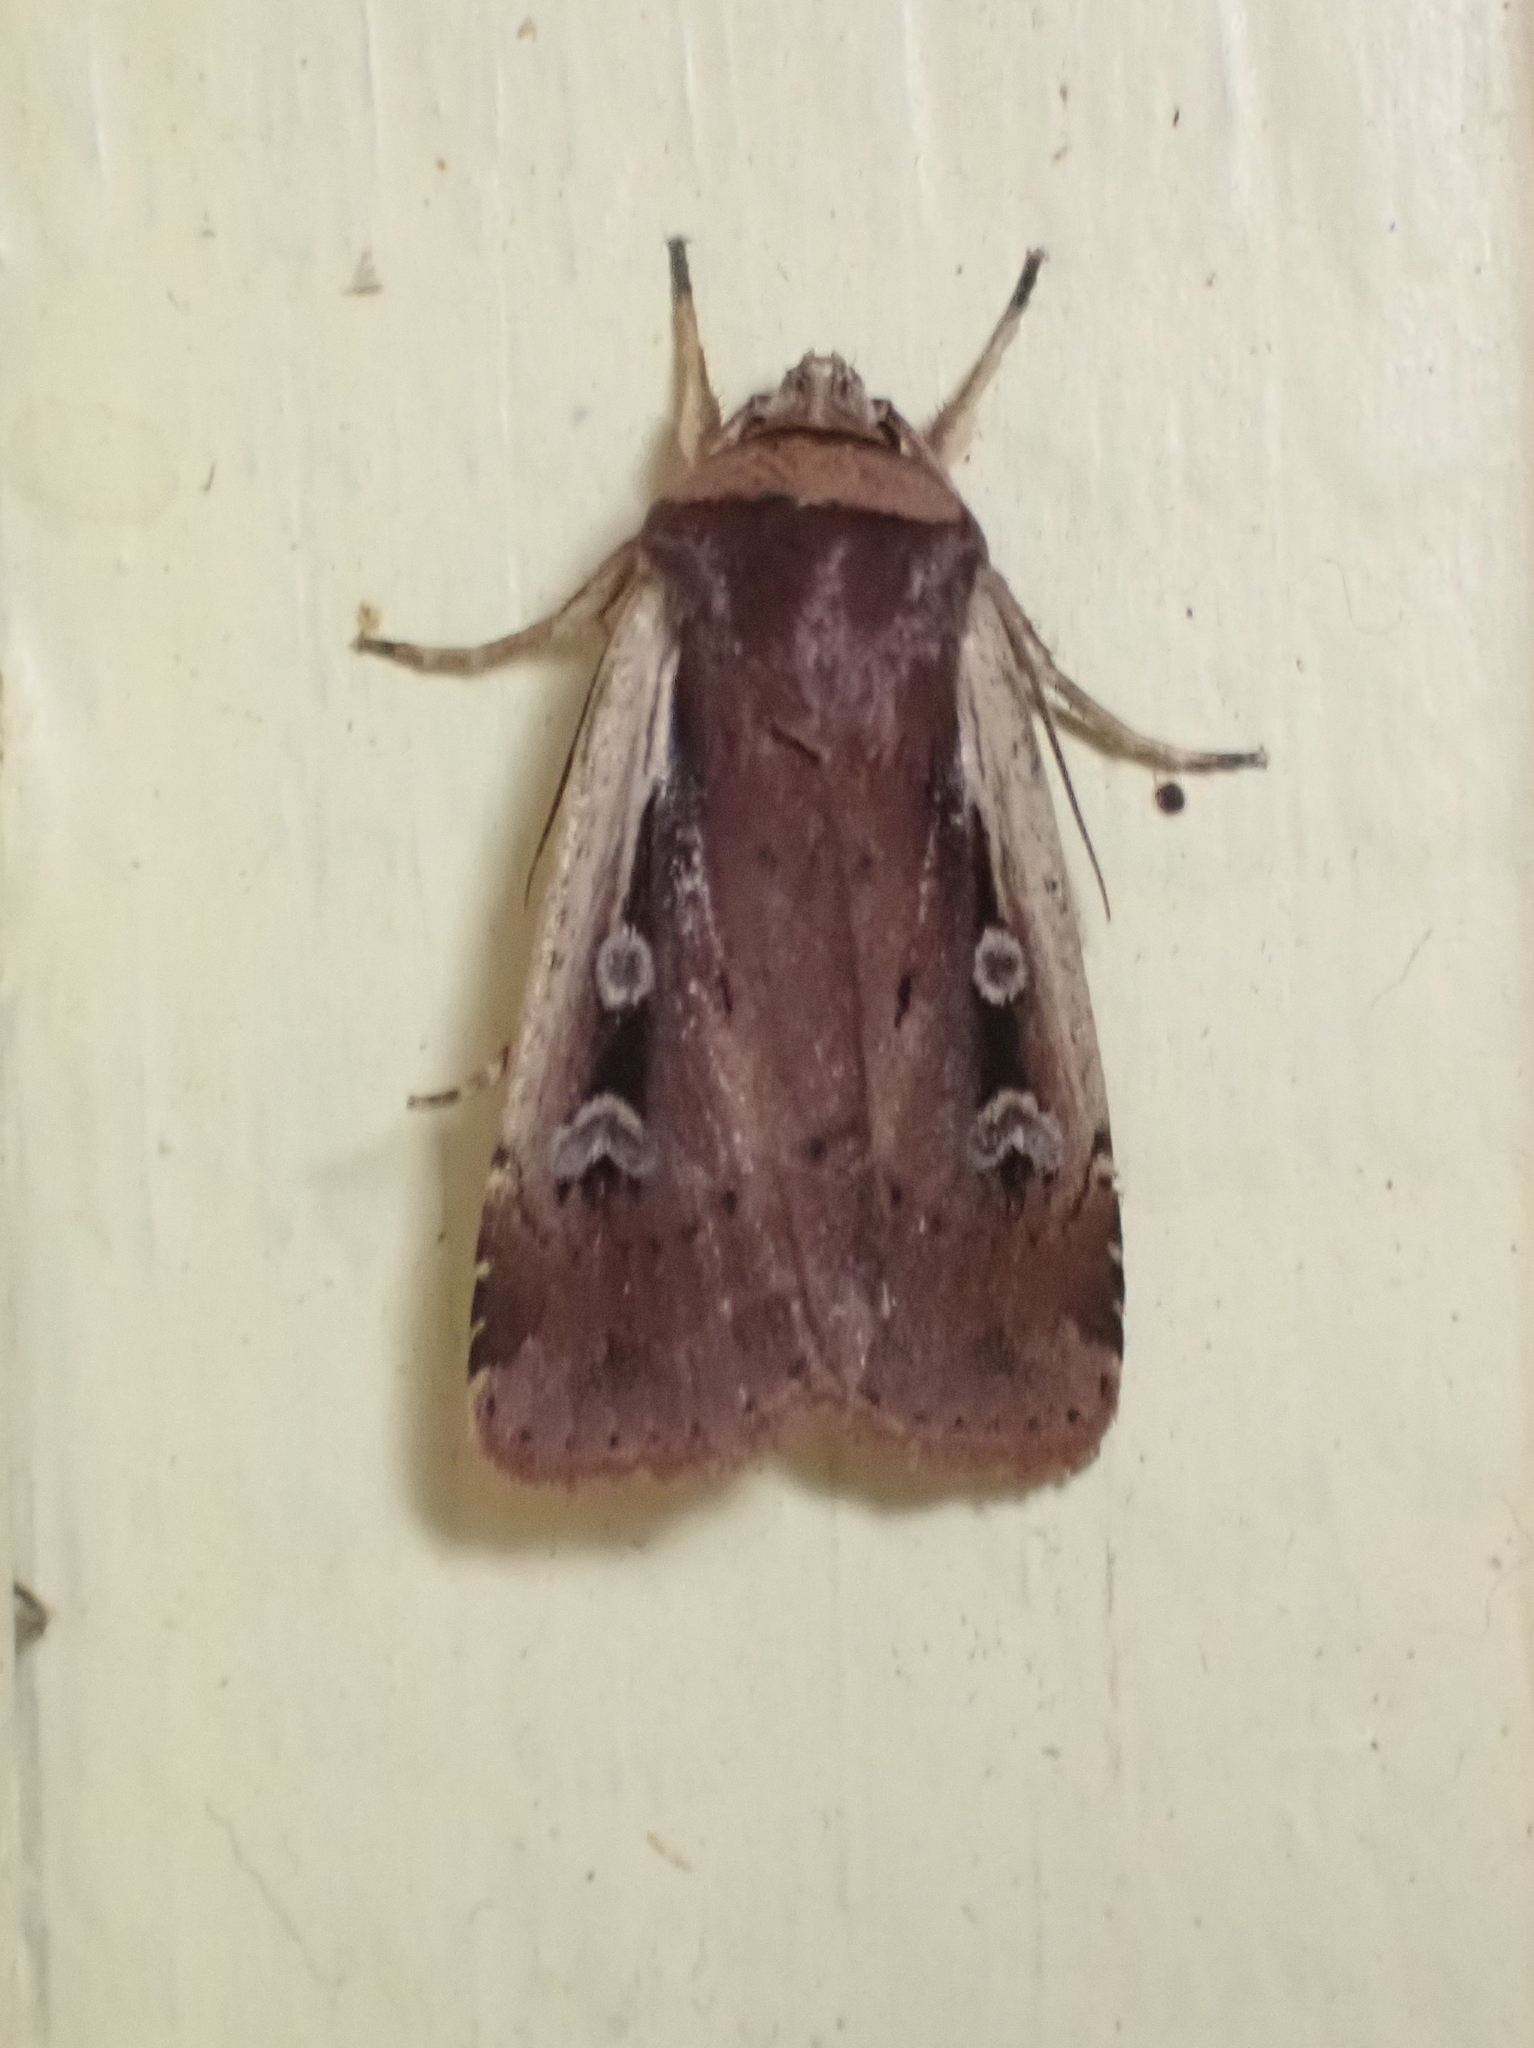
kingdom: Animalia
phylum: Arthropoda
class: Insecta
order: Lepidoptera
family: Noctuidae
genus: Ochropleura
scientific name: Ochropleura implecta
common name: Flame-shouldered dart
